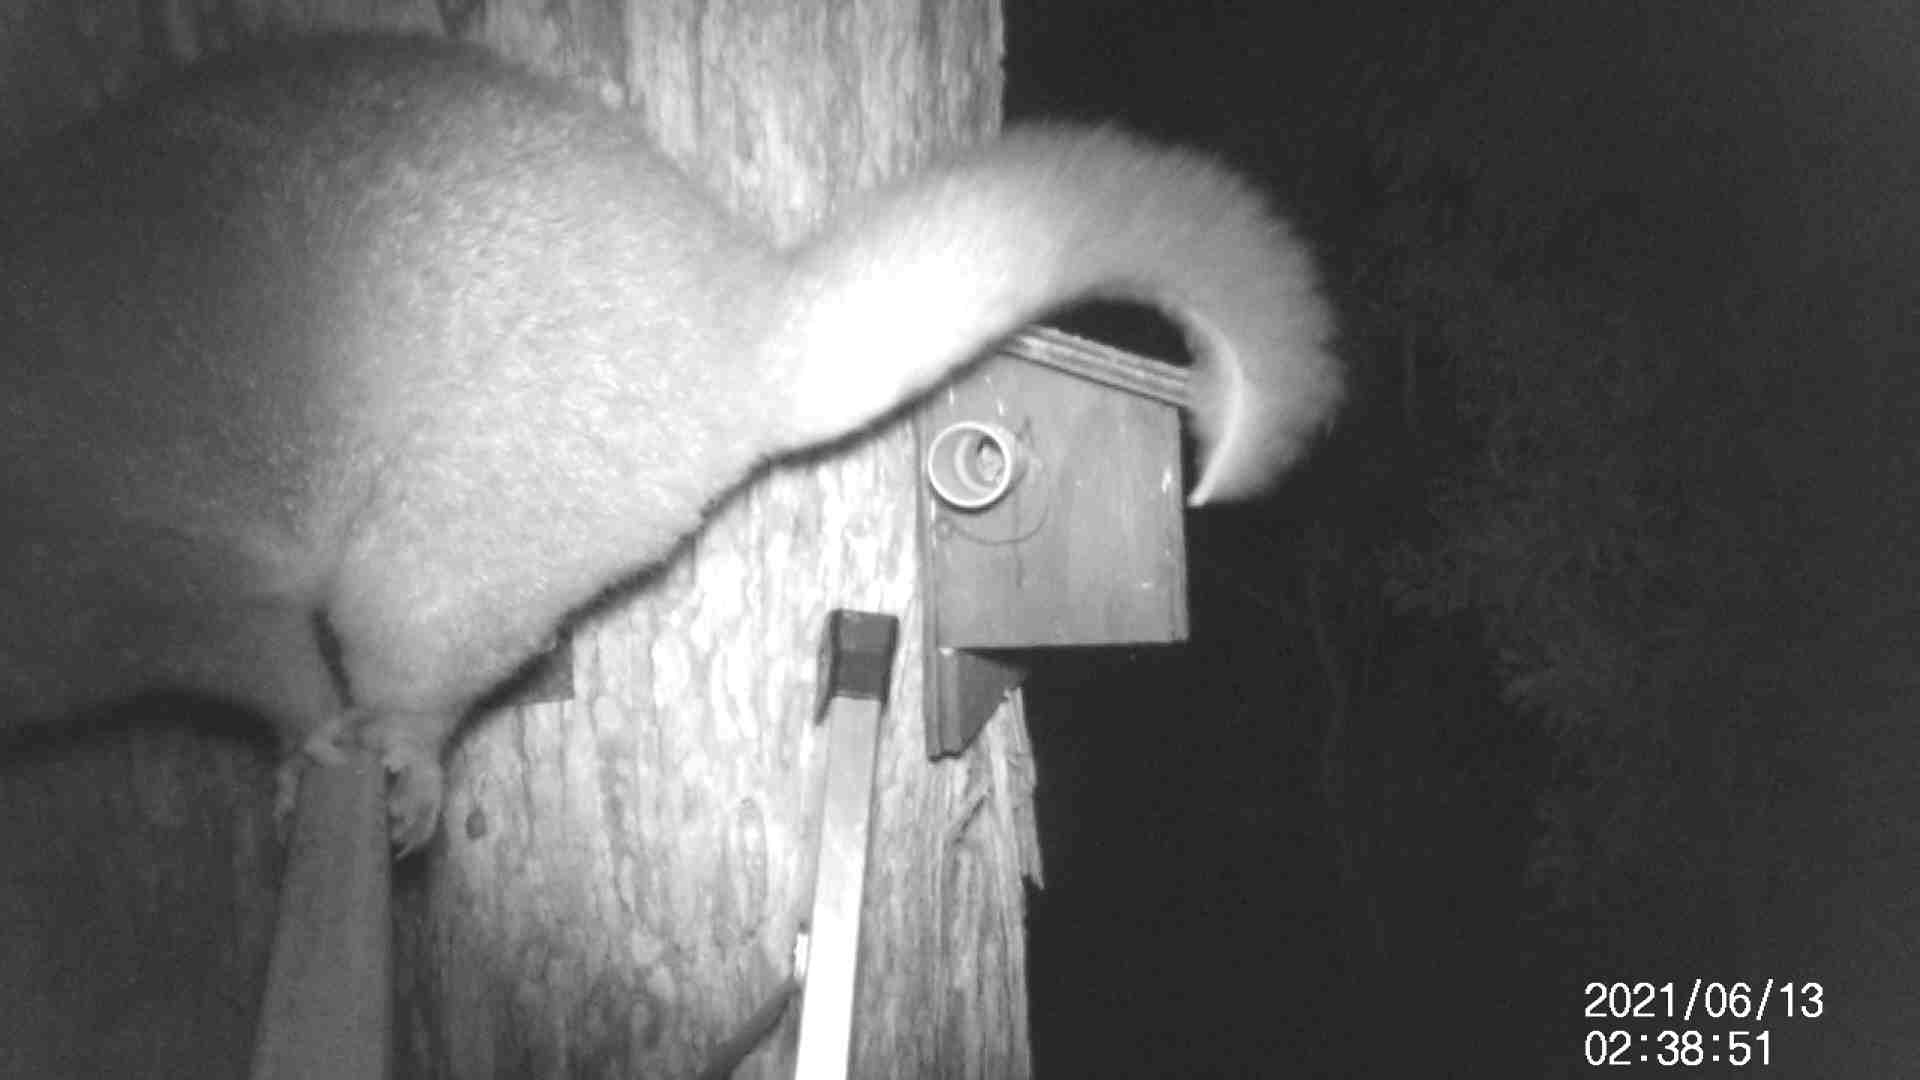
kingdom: Animalia
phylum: Chordata
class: Mammalia
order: Diprotodontia
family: Phalangeridae
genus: Trichosurus
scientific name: Trichosurus vulpecula
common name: Common brushtail
